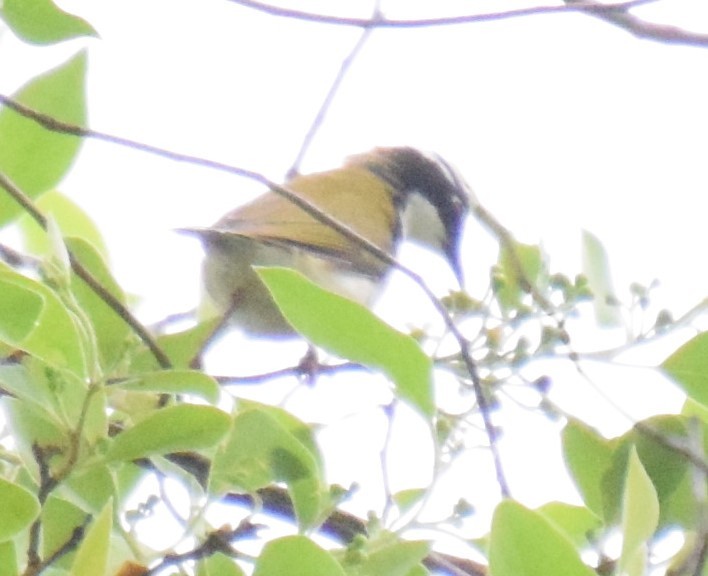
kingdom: Animalia
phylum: Chordata
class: Aves
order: Passeriformes
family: Meliphagidae
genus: Melithreptus
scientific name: Melithreptus albogularis
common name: White-throated honeyeater
